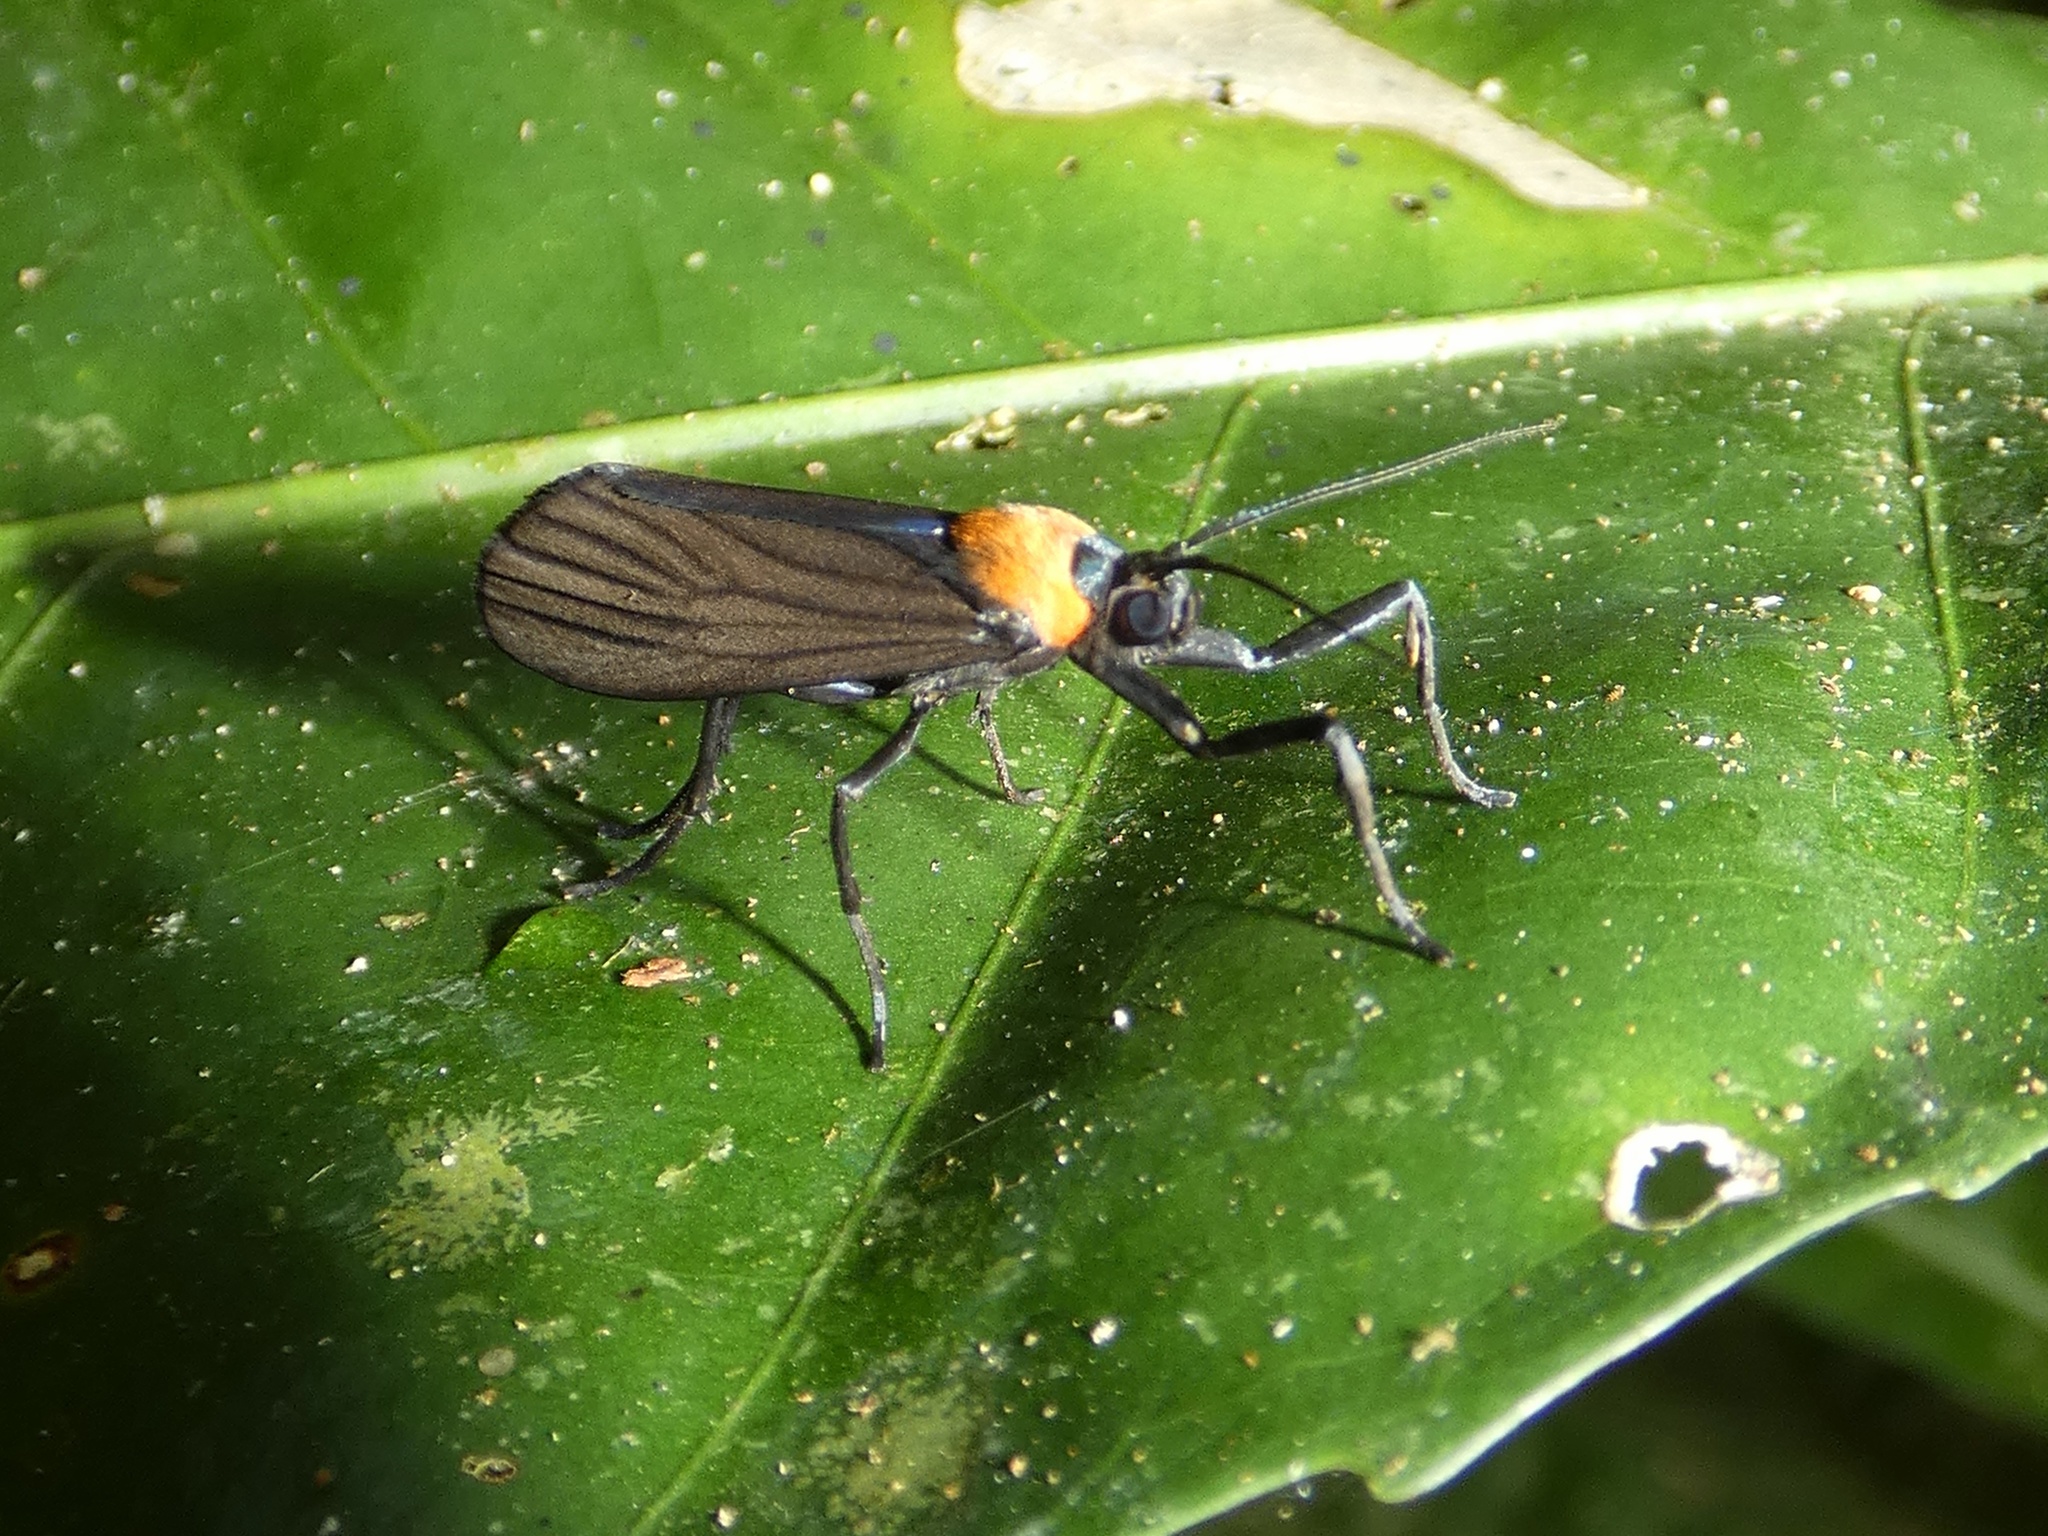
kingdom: Animalia
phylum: Arthropoda
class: Insecta
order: Lepidoptera
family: Erebidae
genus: Balbura
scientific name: Balbura intervenata
